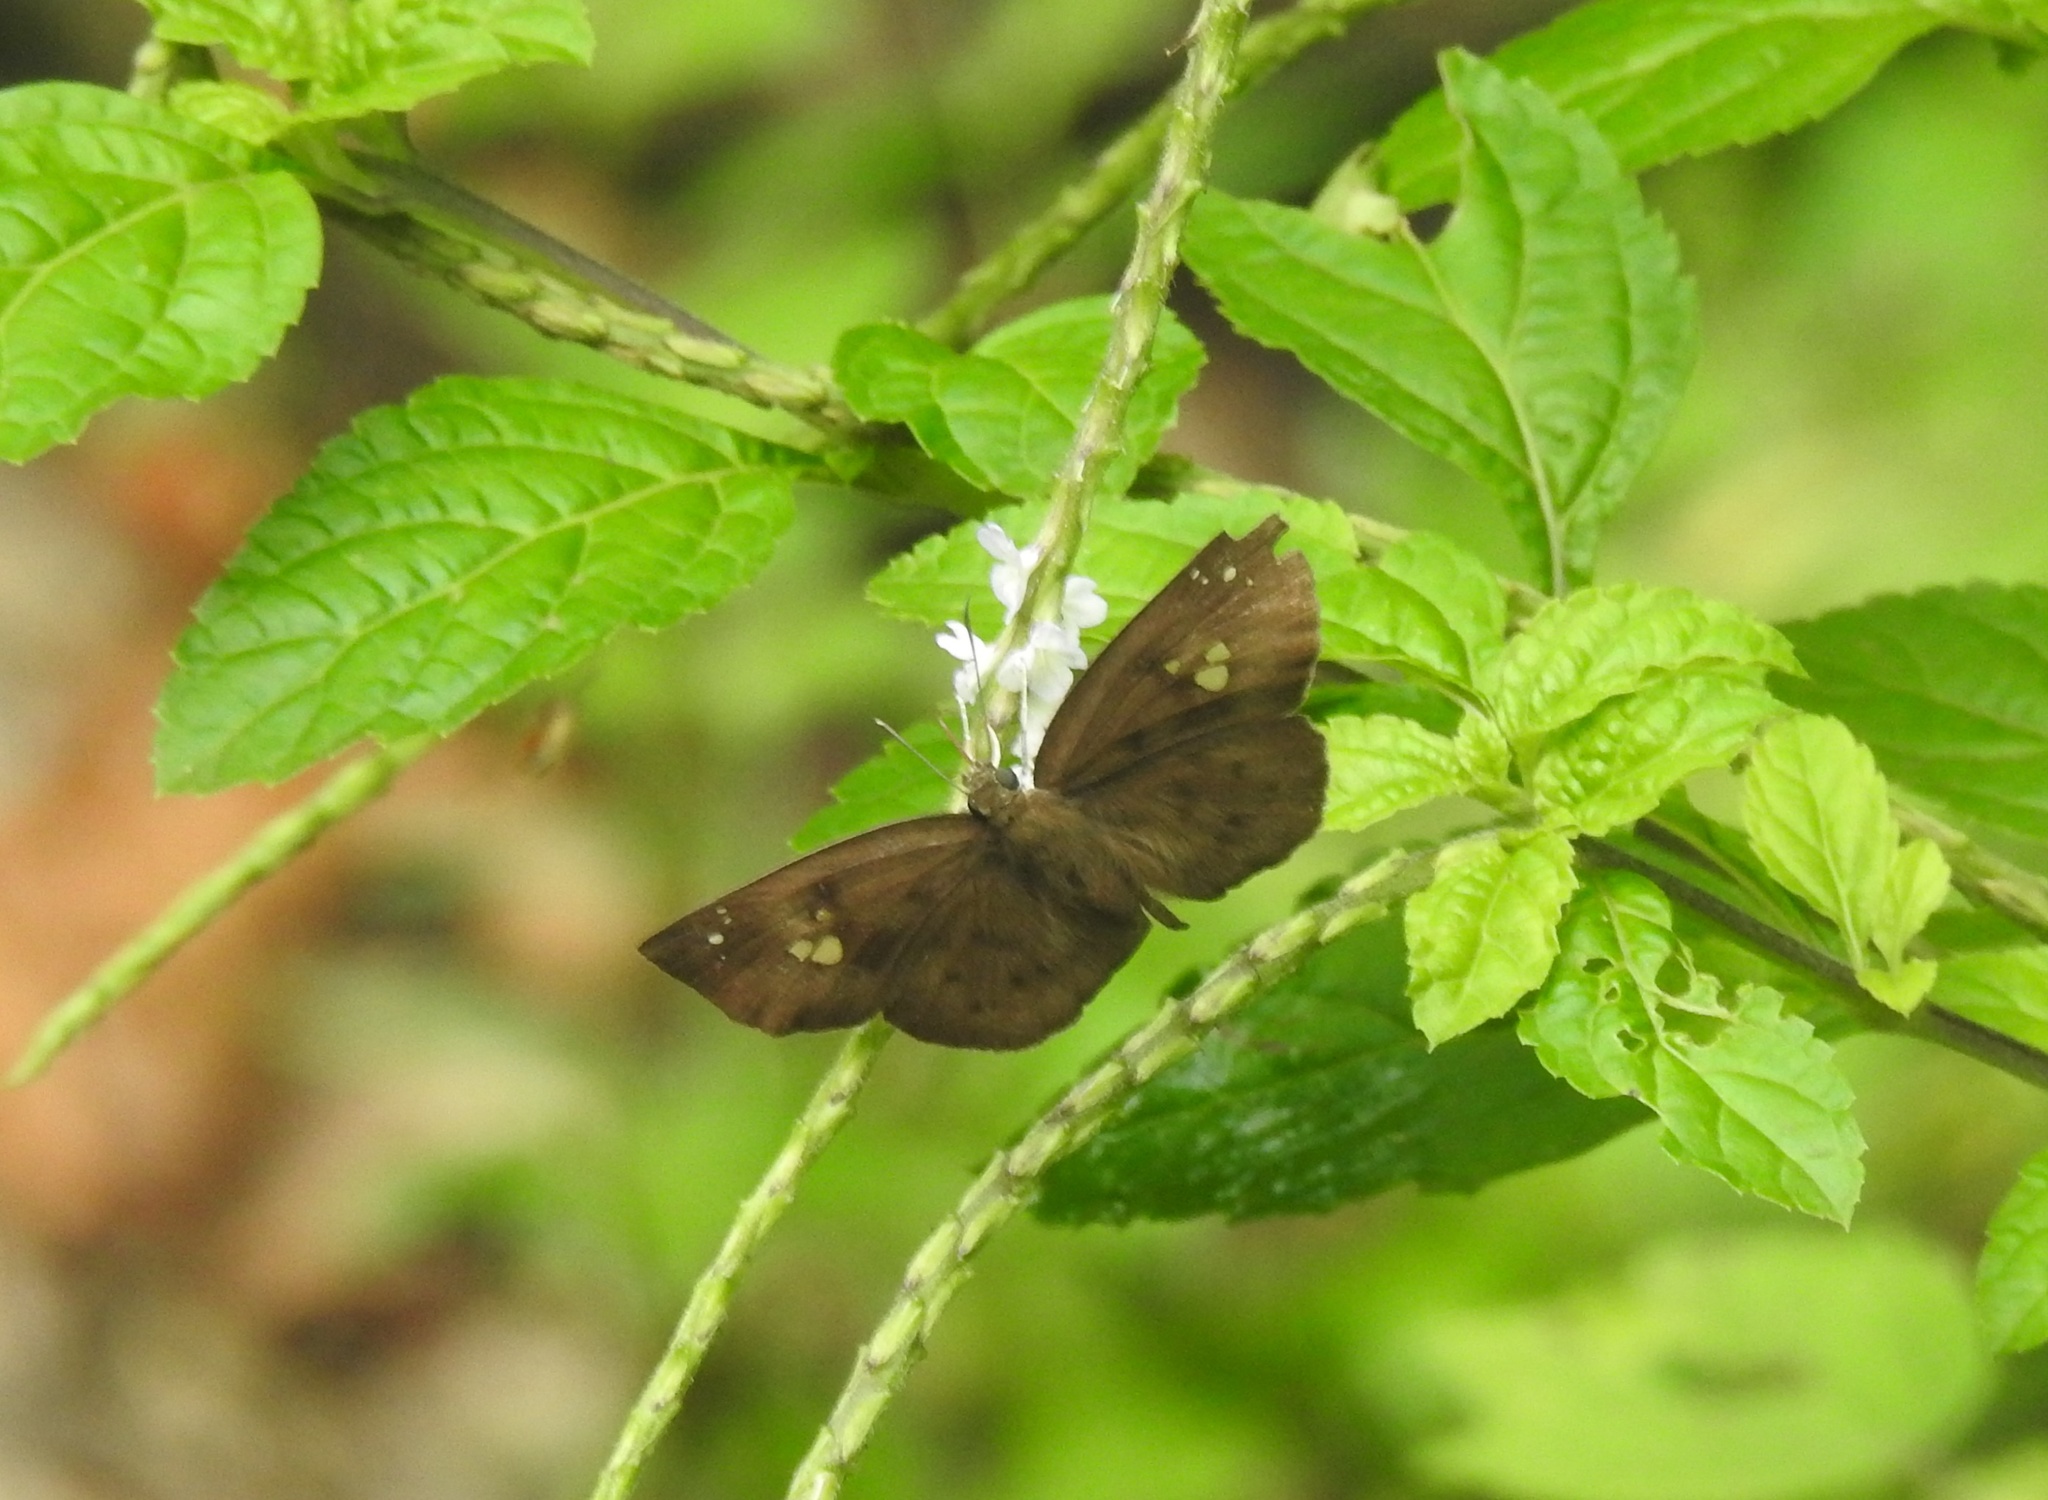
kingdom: Animalia
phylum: Arthropoda
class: Insecta
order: Lepidoptera
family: Hesperiidae
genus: Tagiades
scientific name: Tagiades japetus
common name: Pied flat
